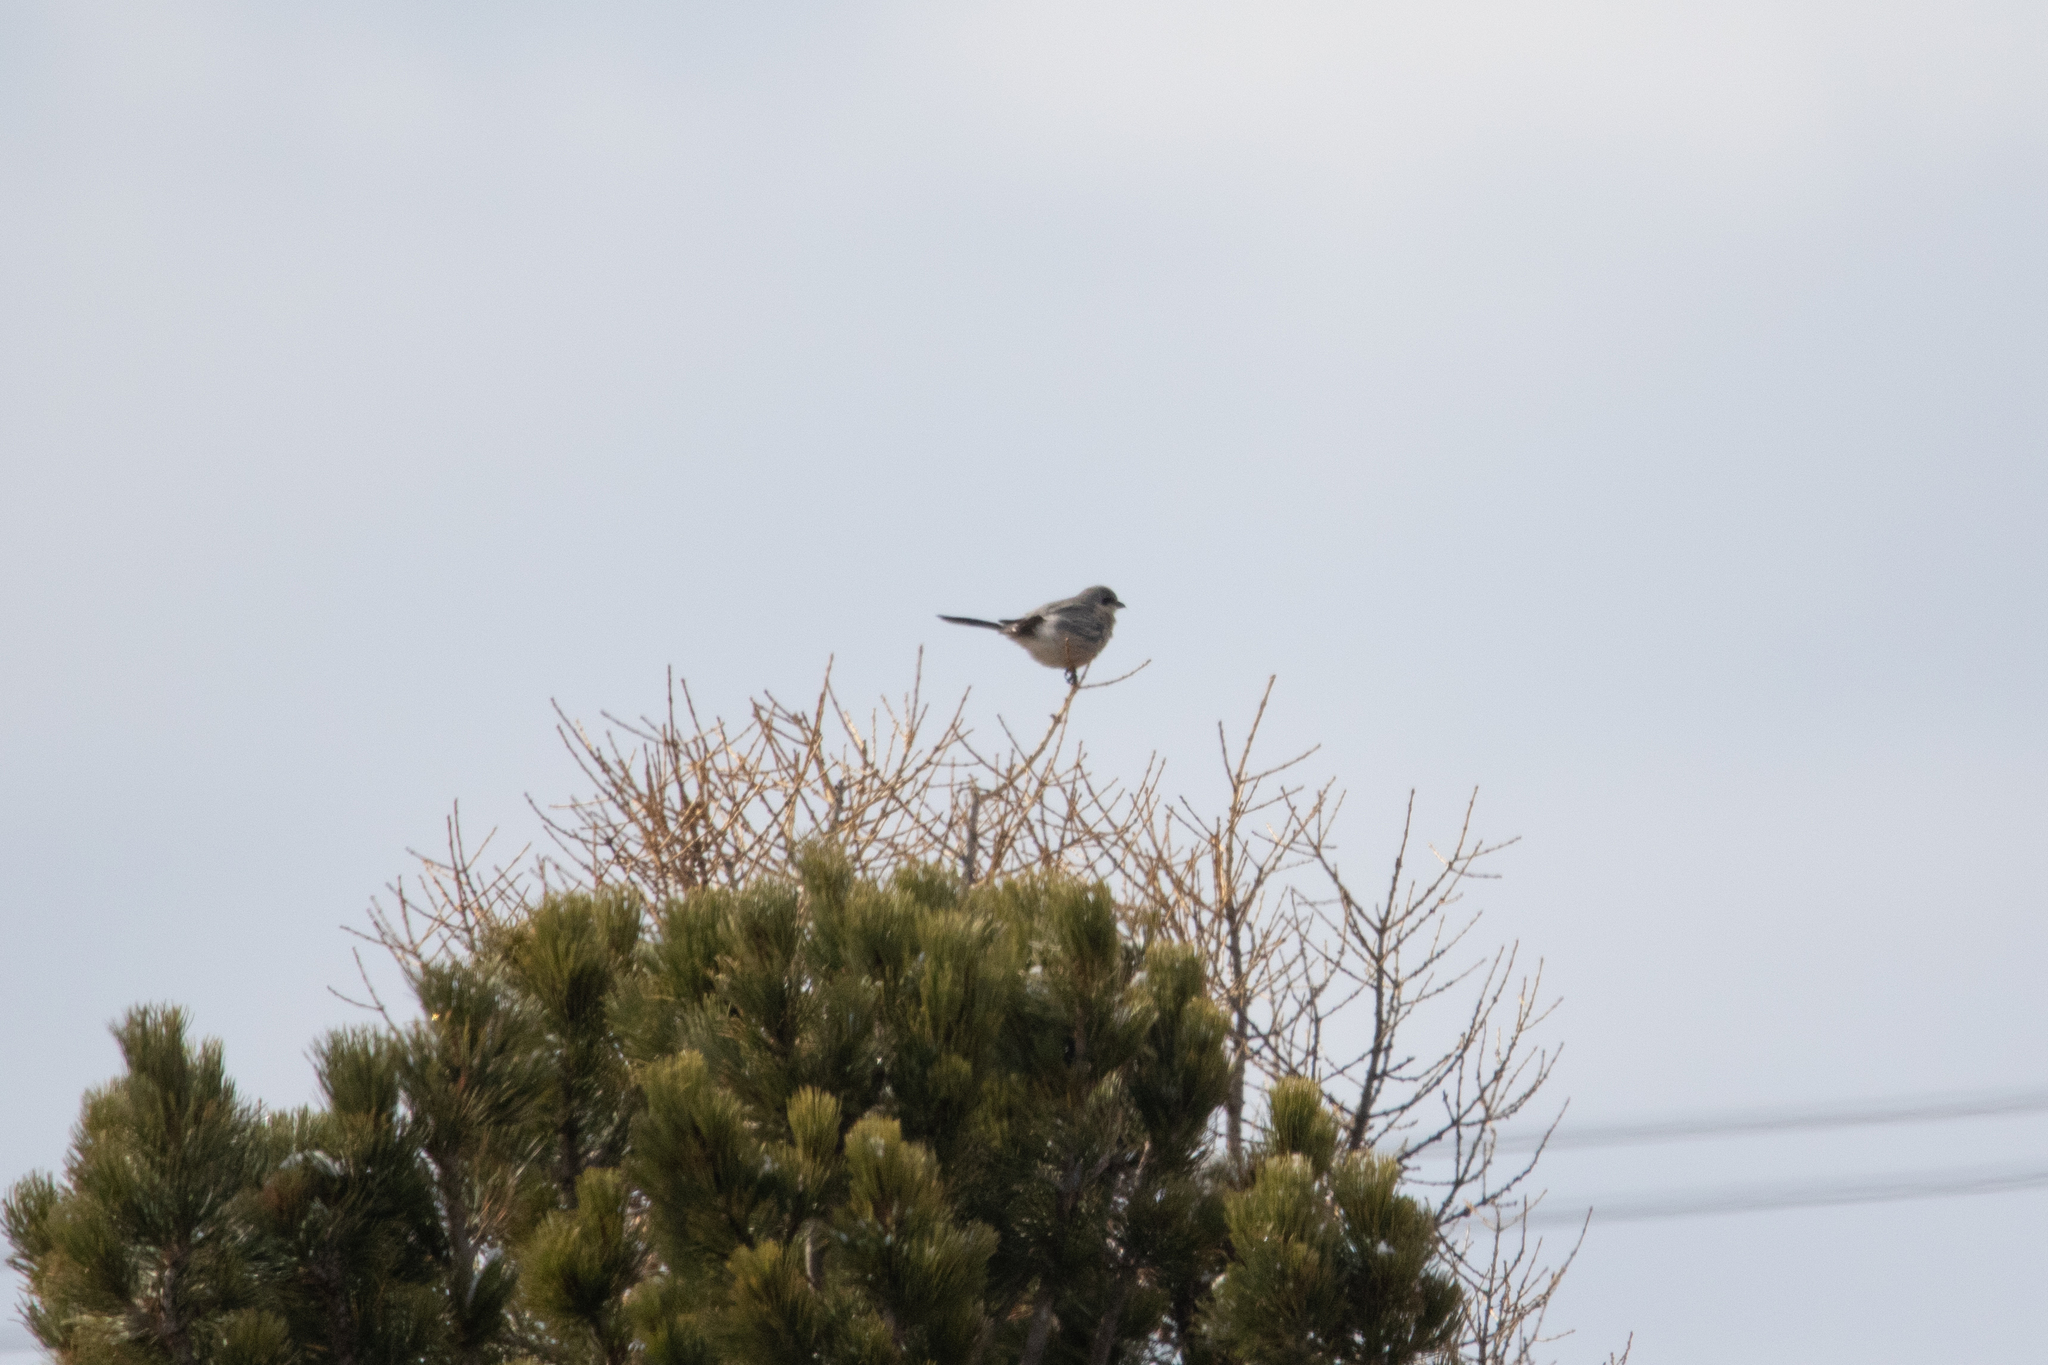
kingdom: Animalia
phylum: Chordata
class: Aves
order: Passeriformes
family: Laniidae
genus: Lanius
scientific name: Lanius borealis
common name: Northern shrike
